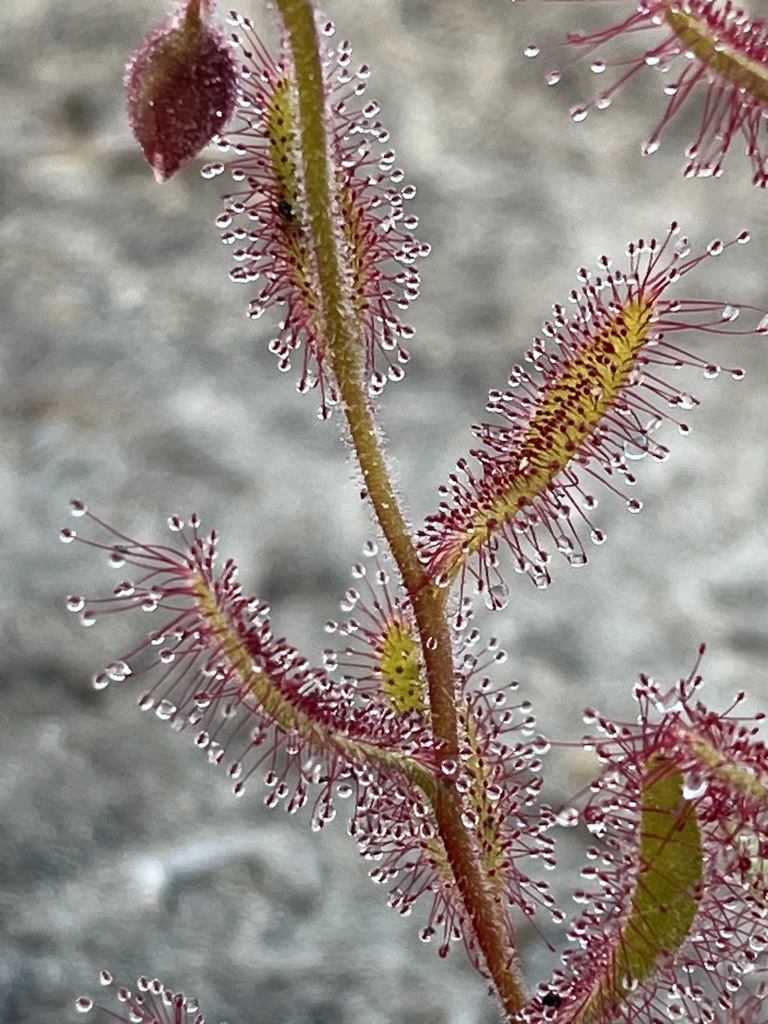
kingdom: Plantae
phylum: Tracheophyta
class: Magnoliopsida
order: Caryophyllales
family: Droseraceae
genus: Drosera
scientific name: Drosera cistiflora
